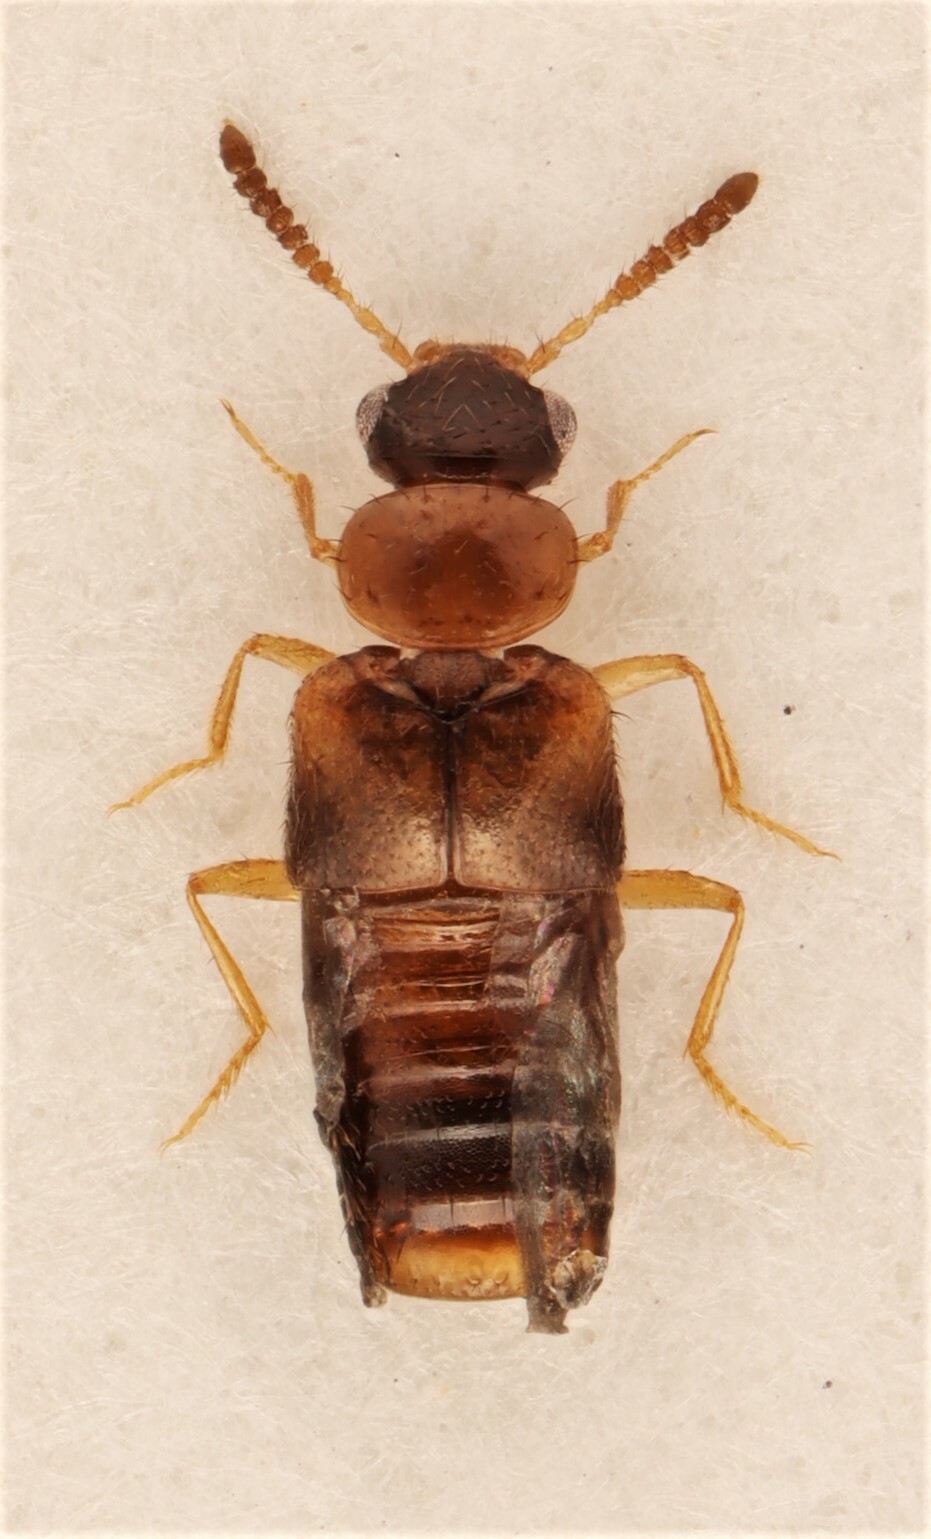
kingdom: Animalia
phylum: Arthropoda
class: Insecta
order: Coleoptera
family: Staphylinidae
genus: Gyrophaena
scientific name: Gyrophaena keeni
